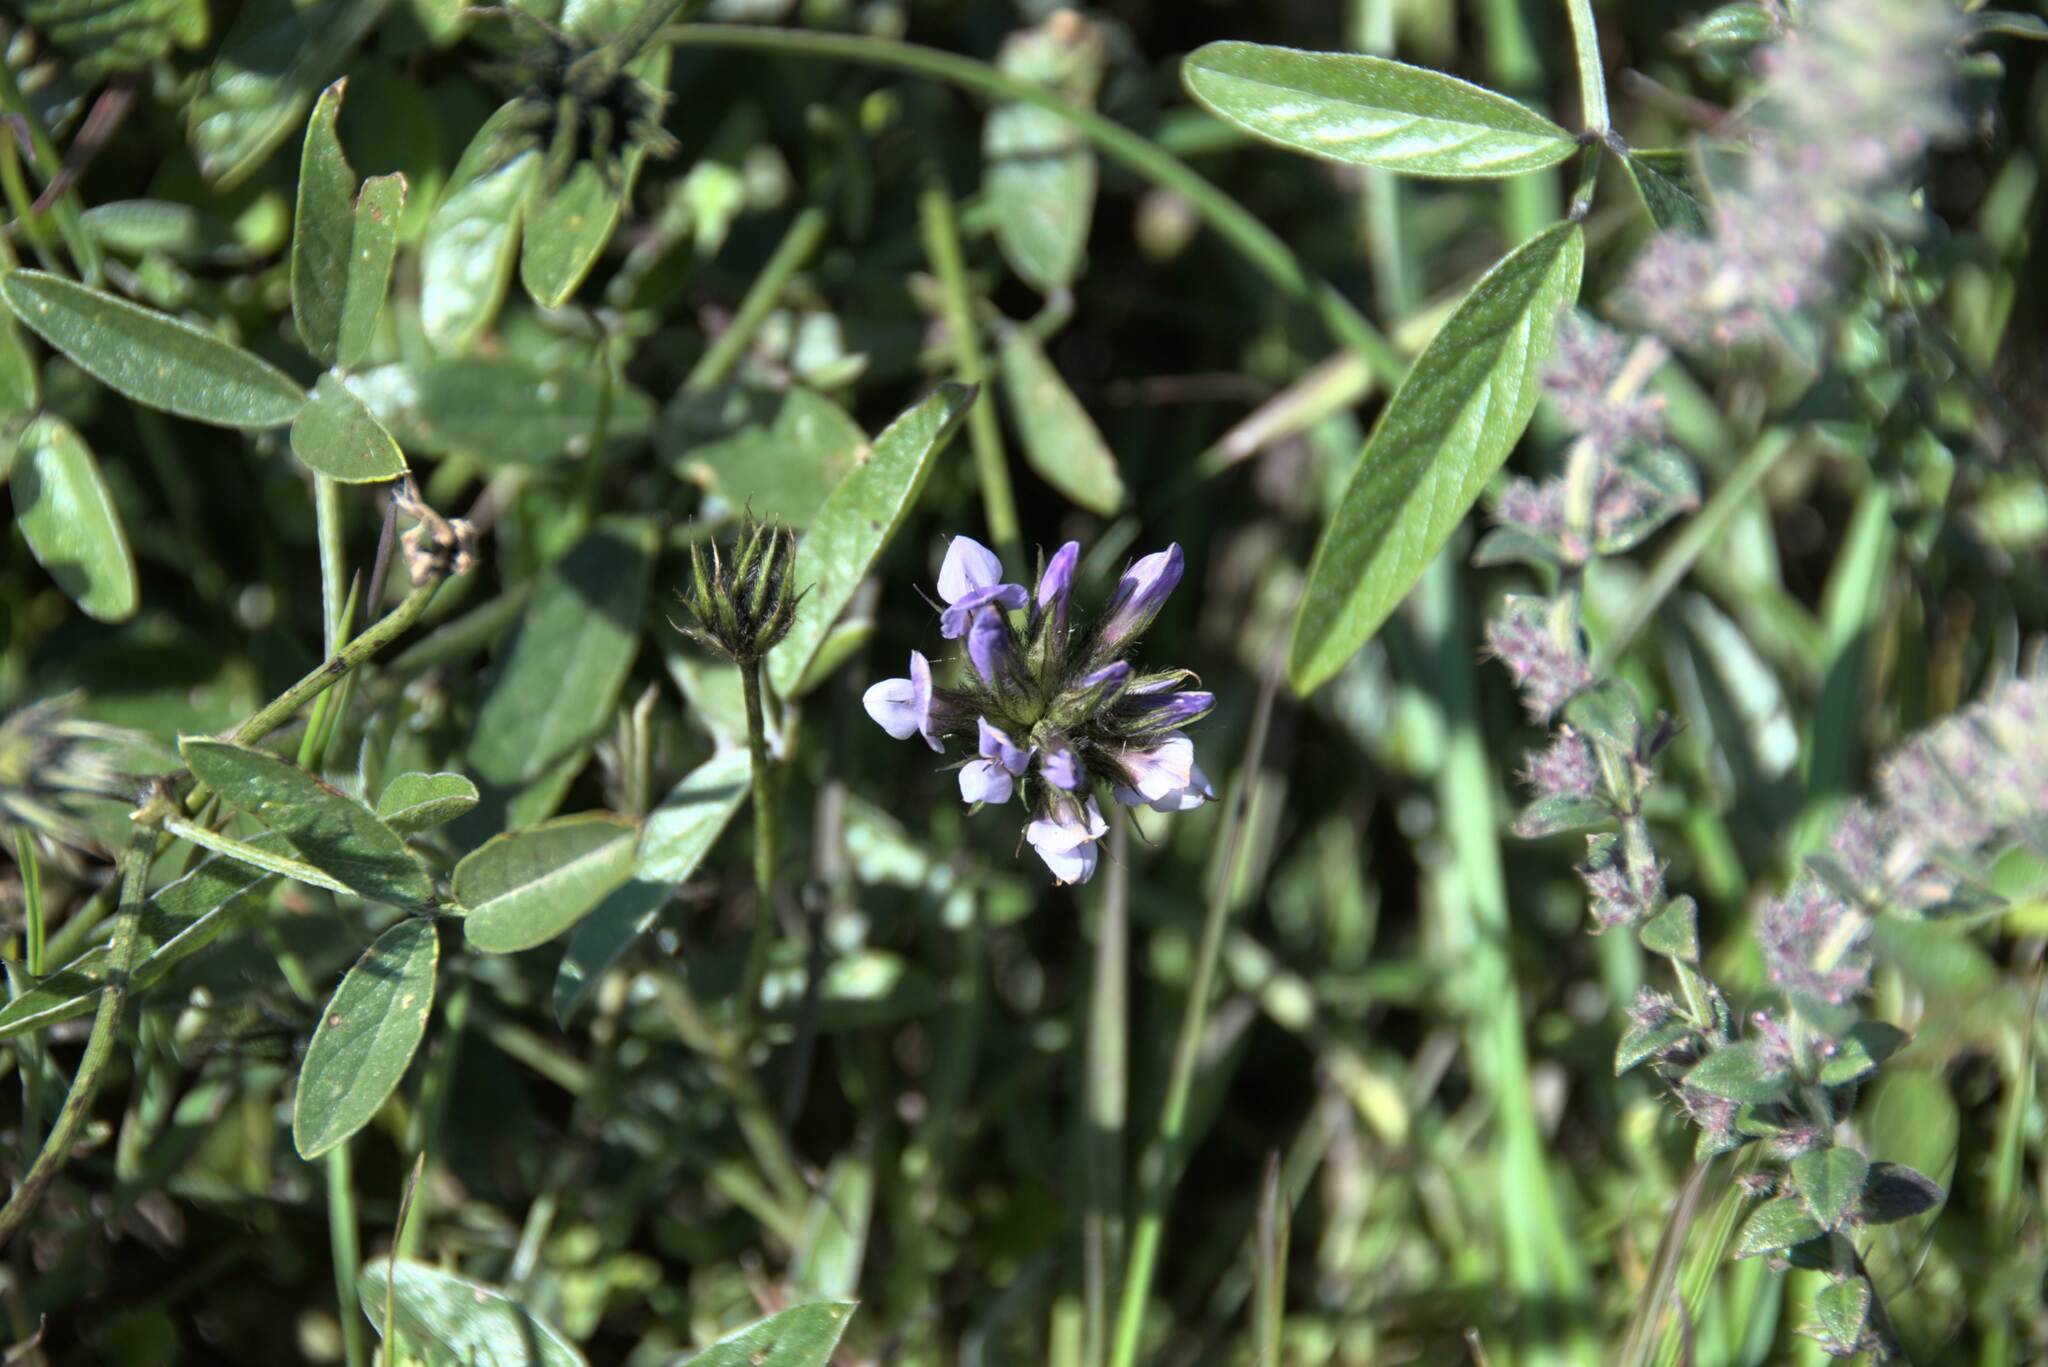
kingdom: Plantae
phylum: Tracheophyta
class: Magnoliopsida
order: Fabales
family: Fabaceae
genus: Bituminaria
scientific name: Bituminaria bituminosa
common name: Arabian pea
